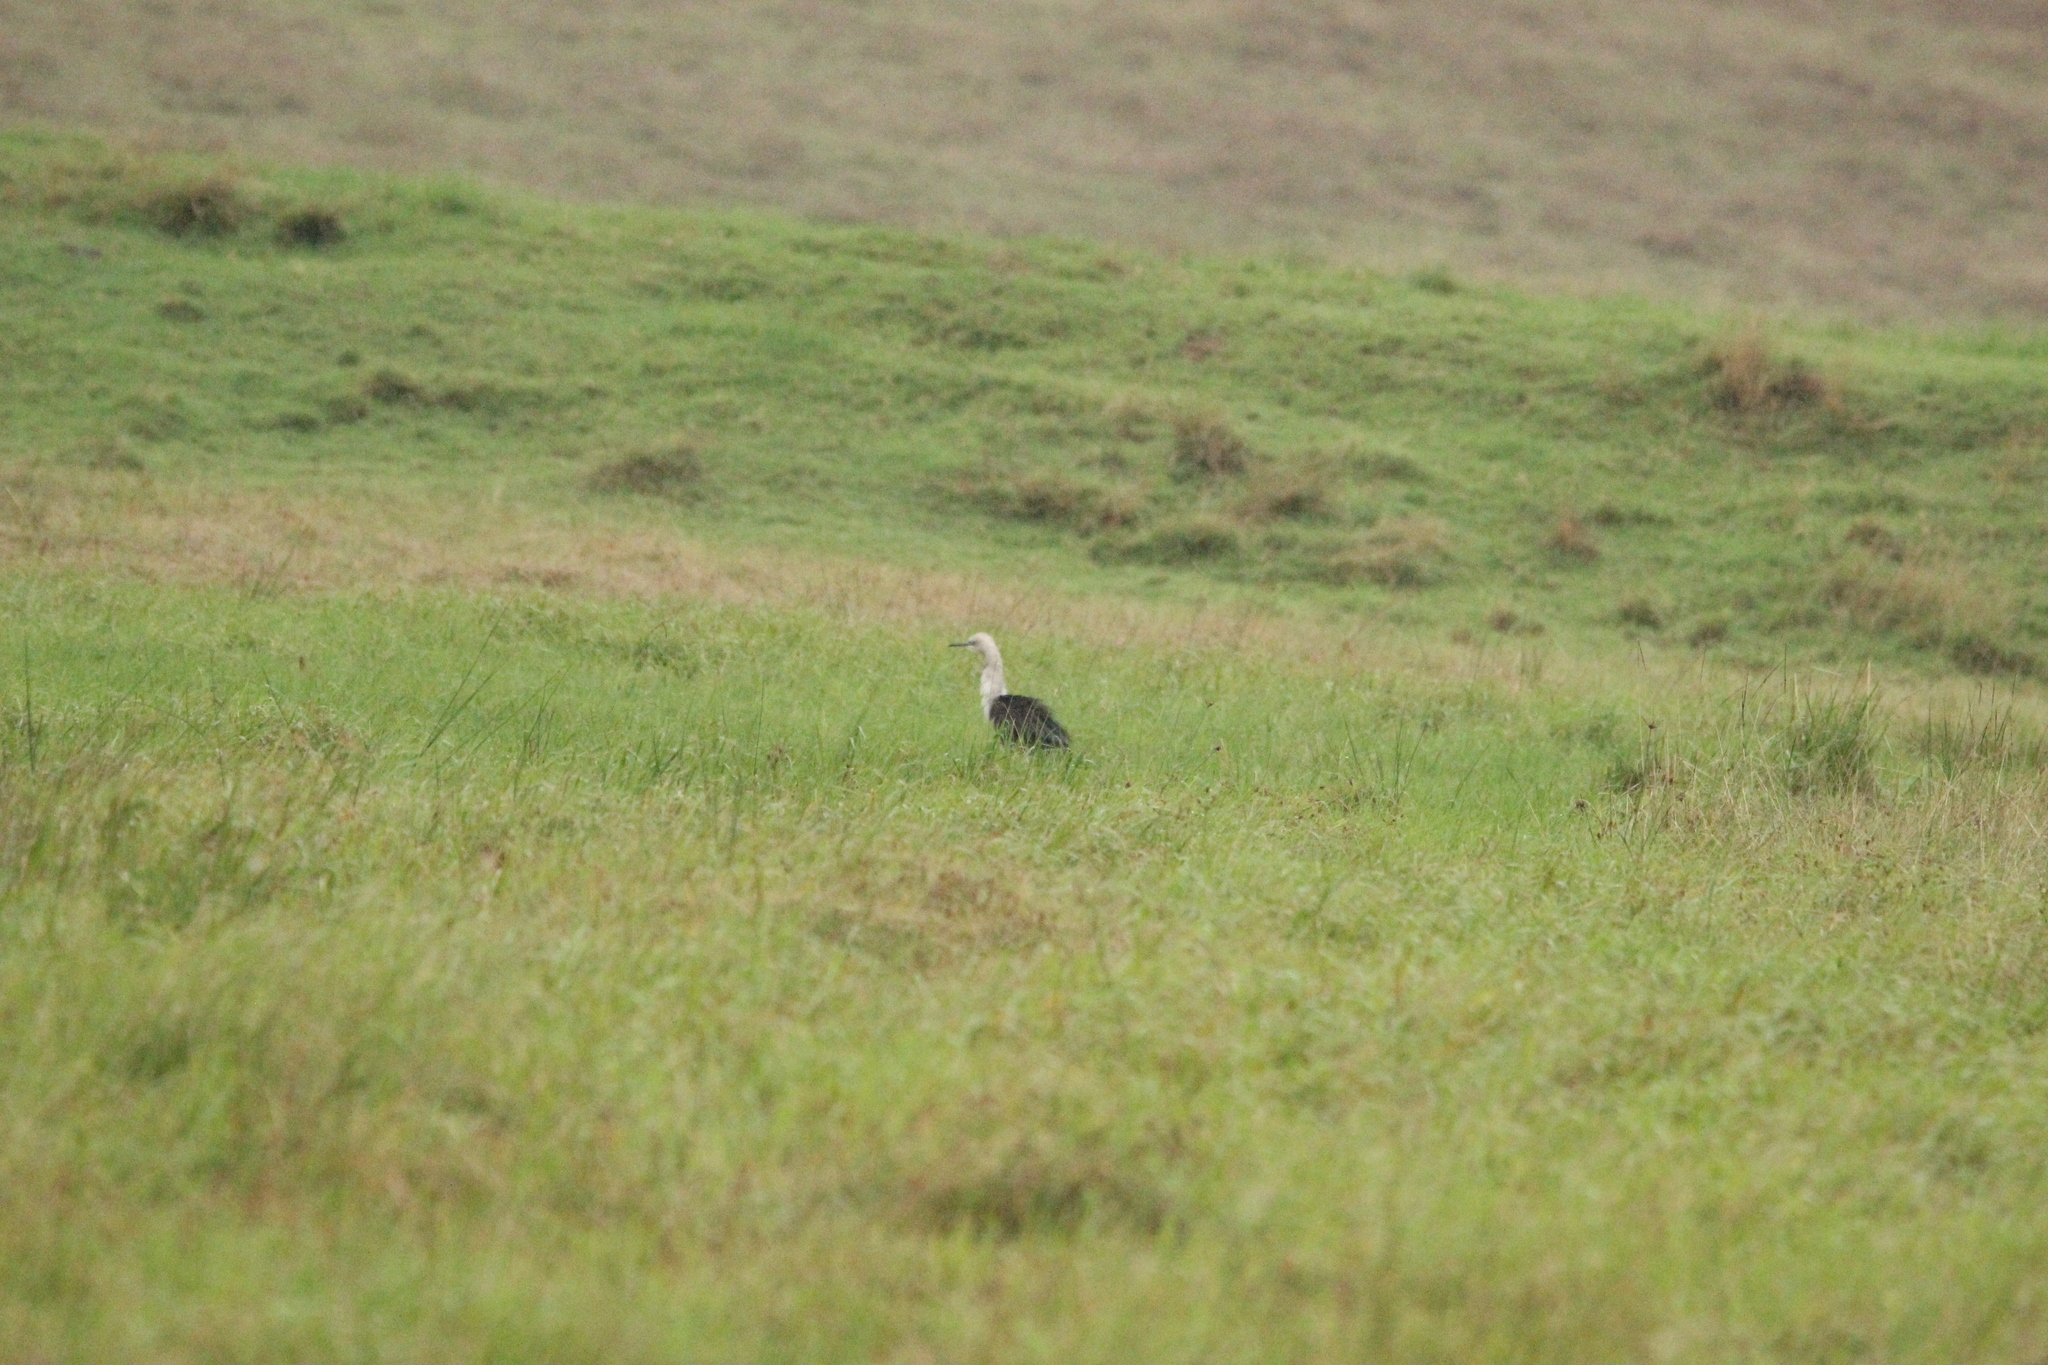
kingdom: Animalia
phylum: Chordata
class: Aves
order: Pelecaniformes
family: Ardeidae
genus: Ardea
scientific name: Ardea pacifica
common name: White-necked heron
